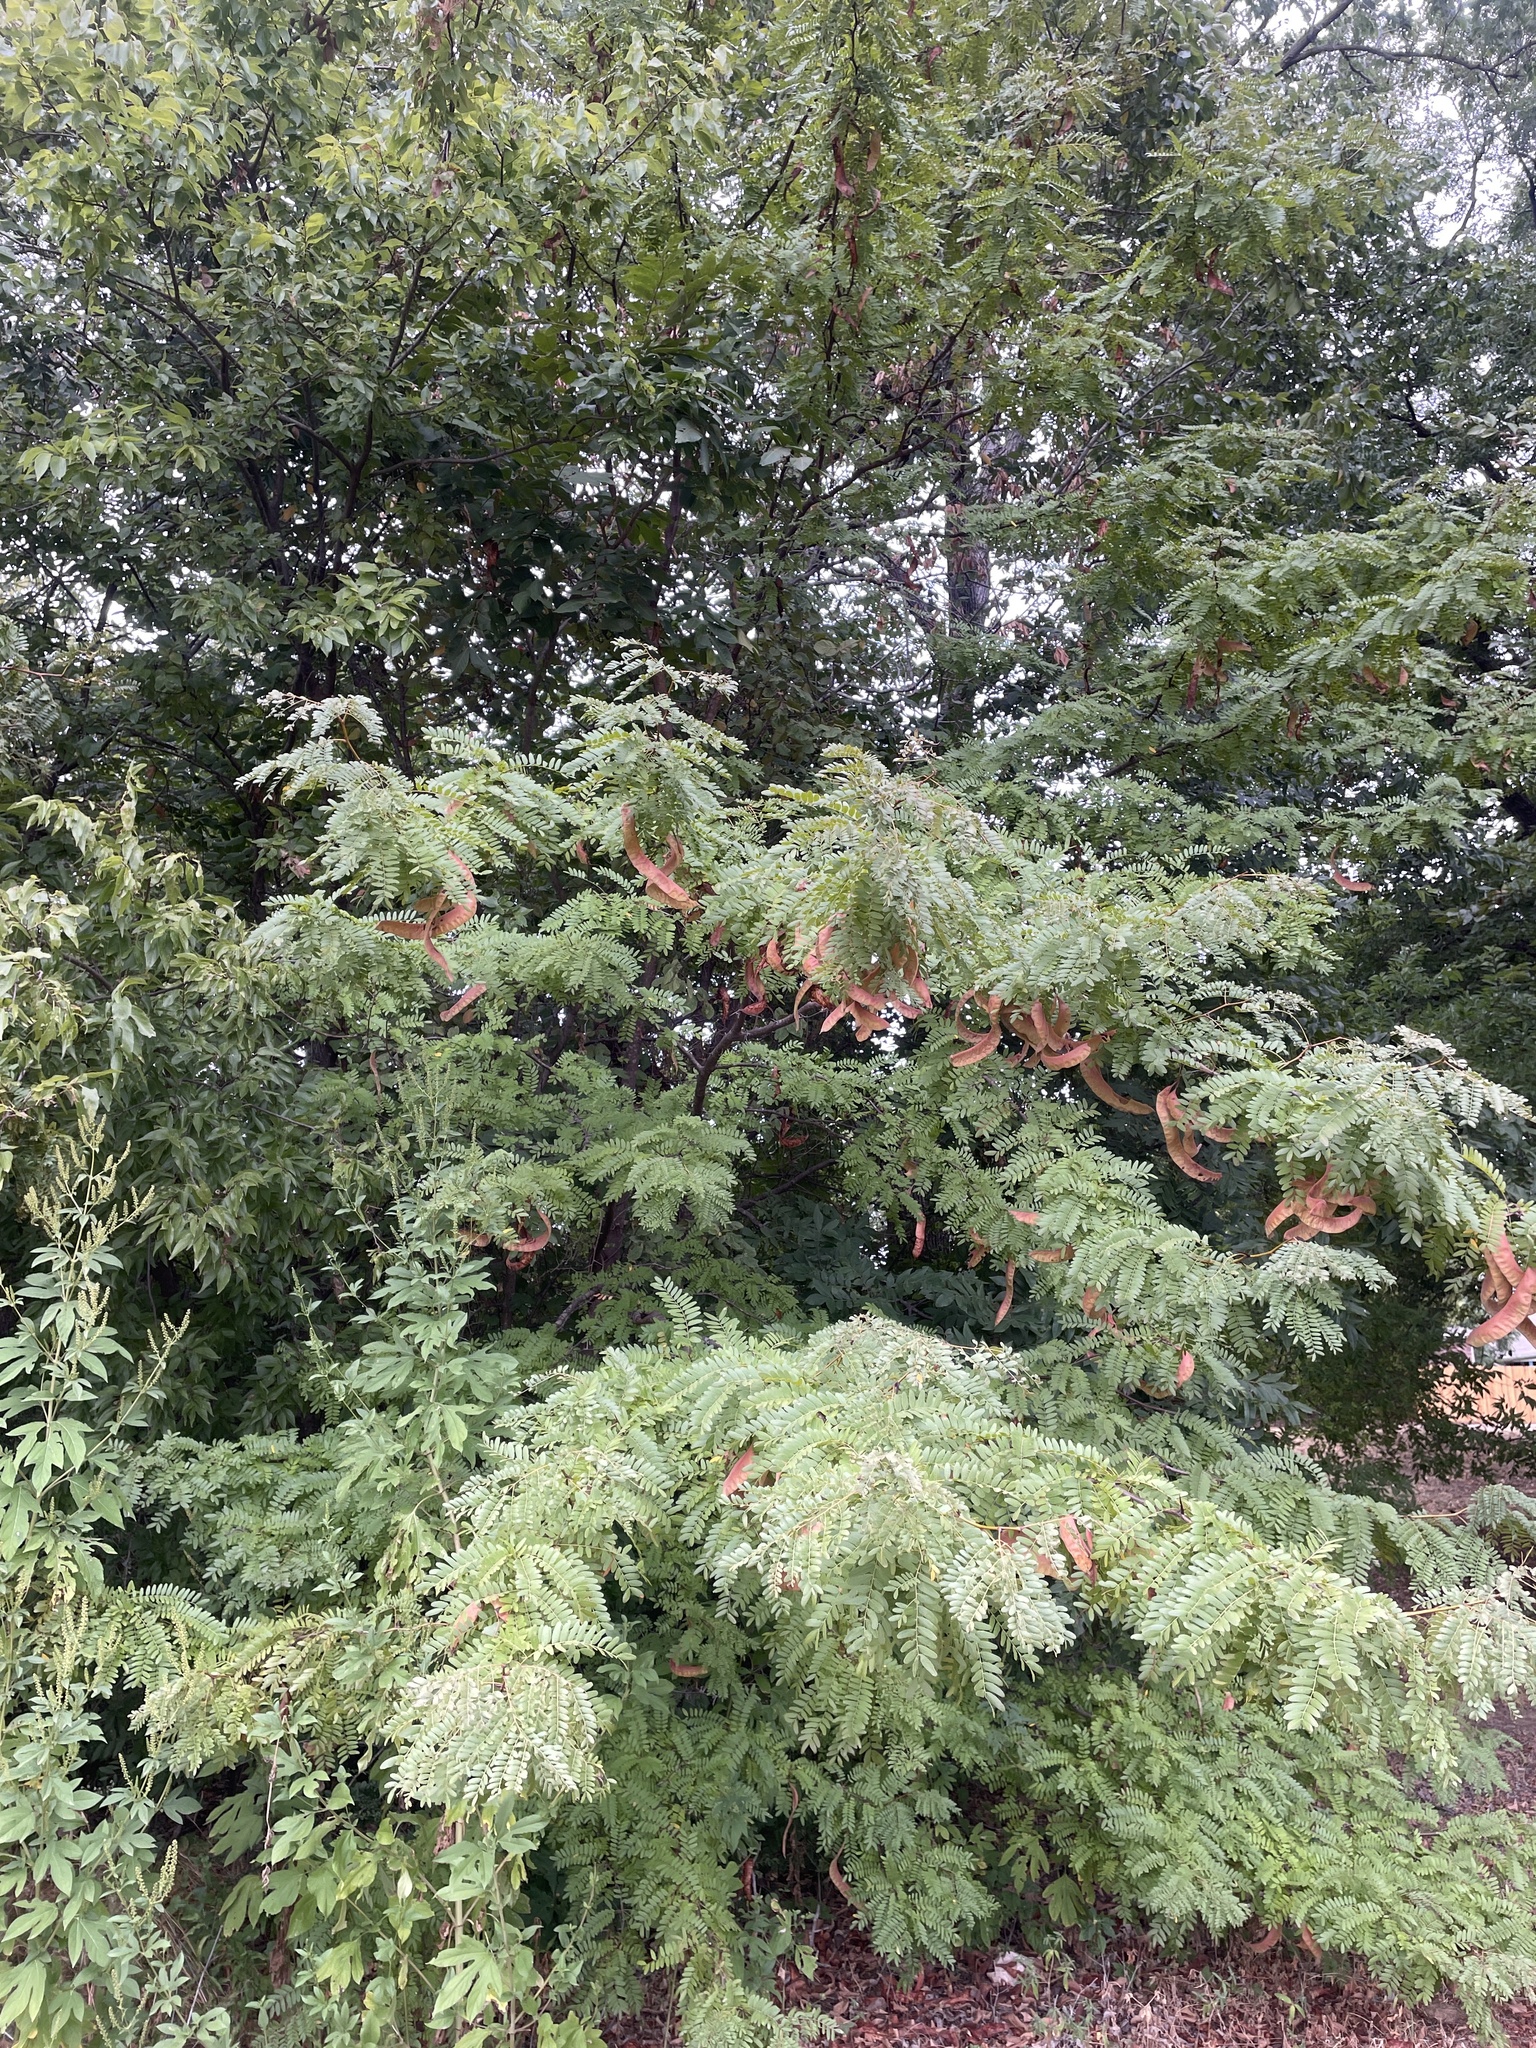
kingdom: Plantae
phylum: Tracheophyta
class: Magnoliopsida
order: Fabales
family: Fabaceae
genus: Gleditsia
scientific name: Gleditsia triacanthos
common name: Common honeylocust
